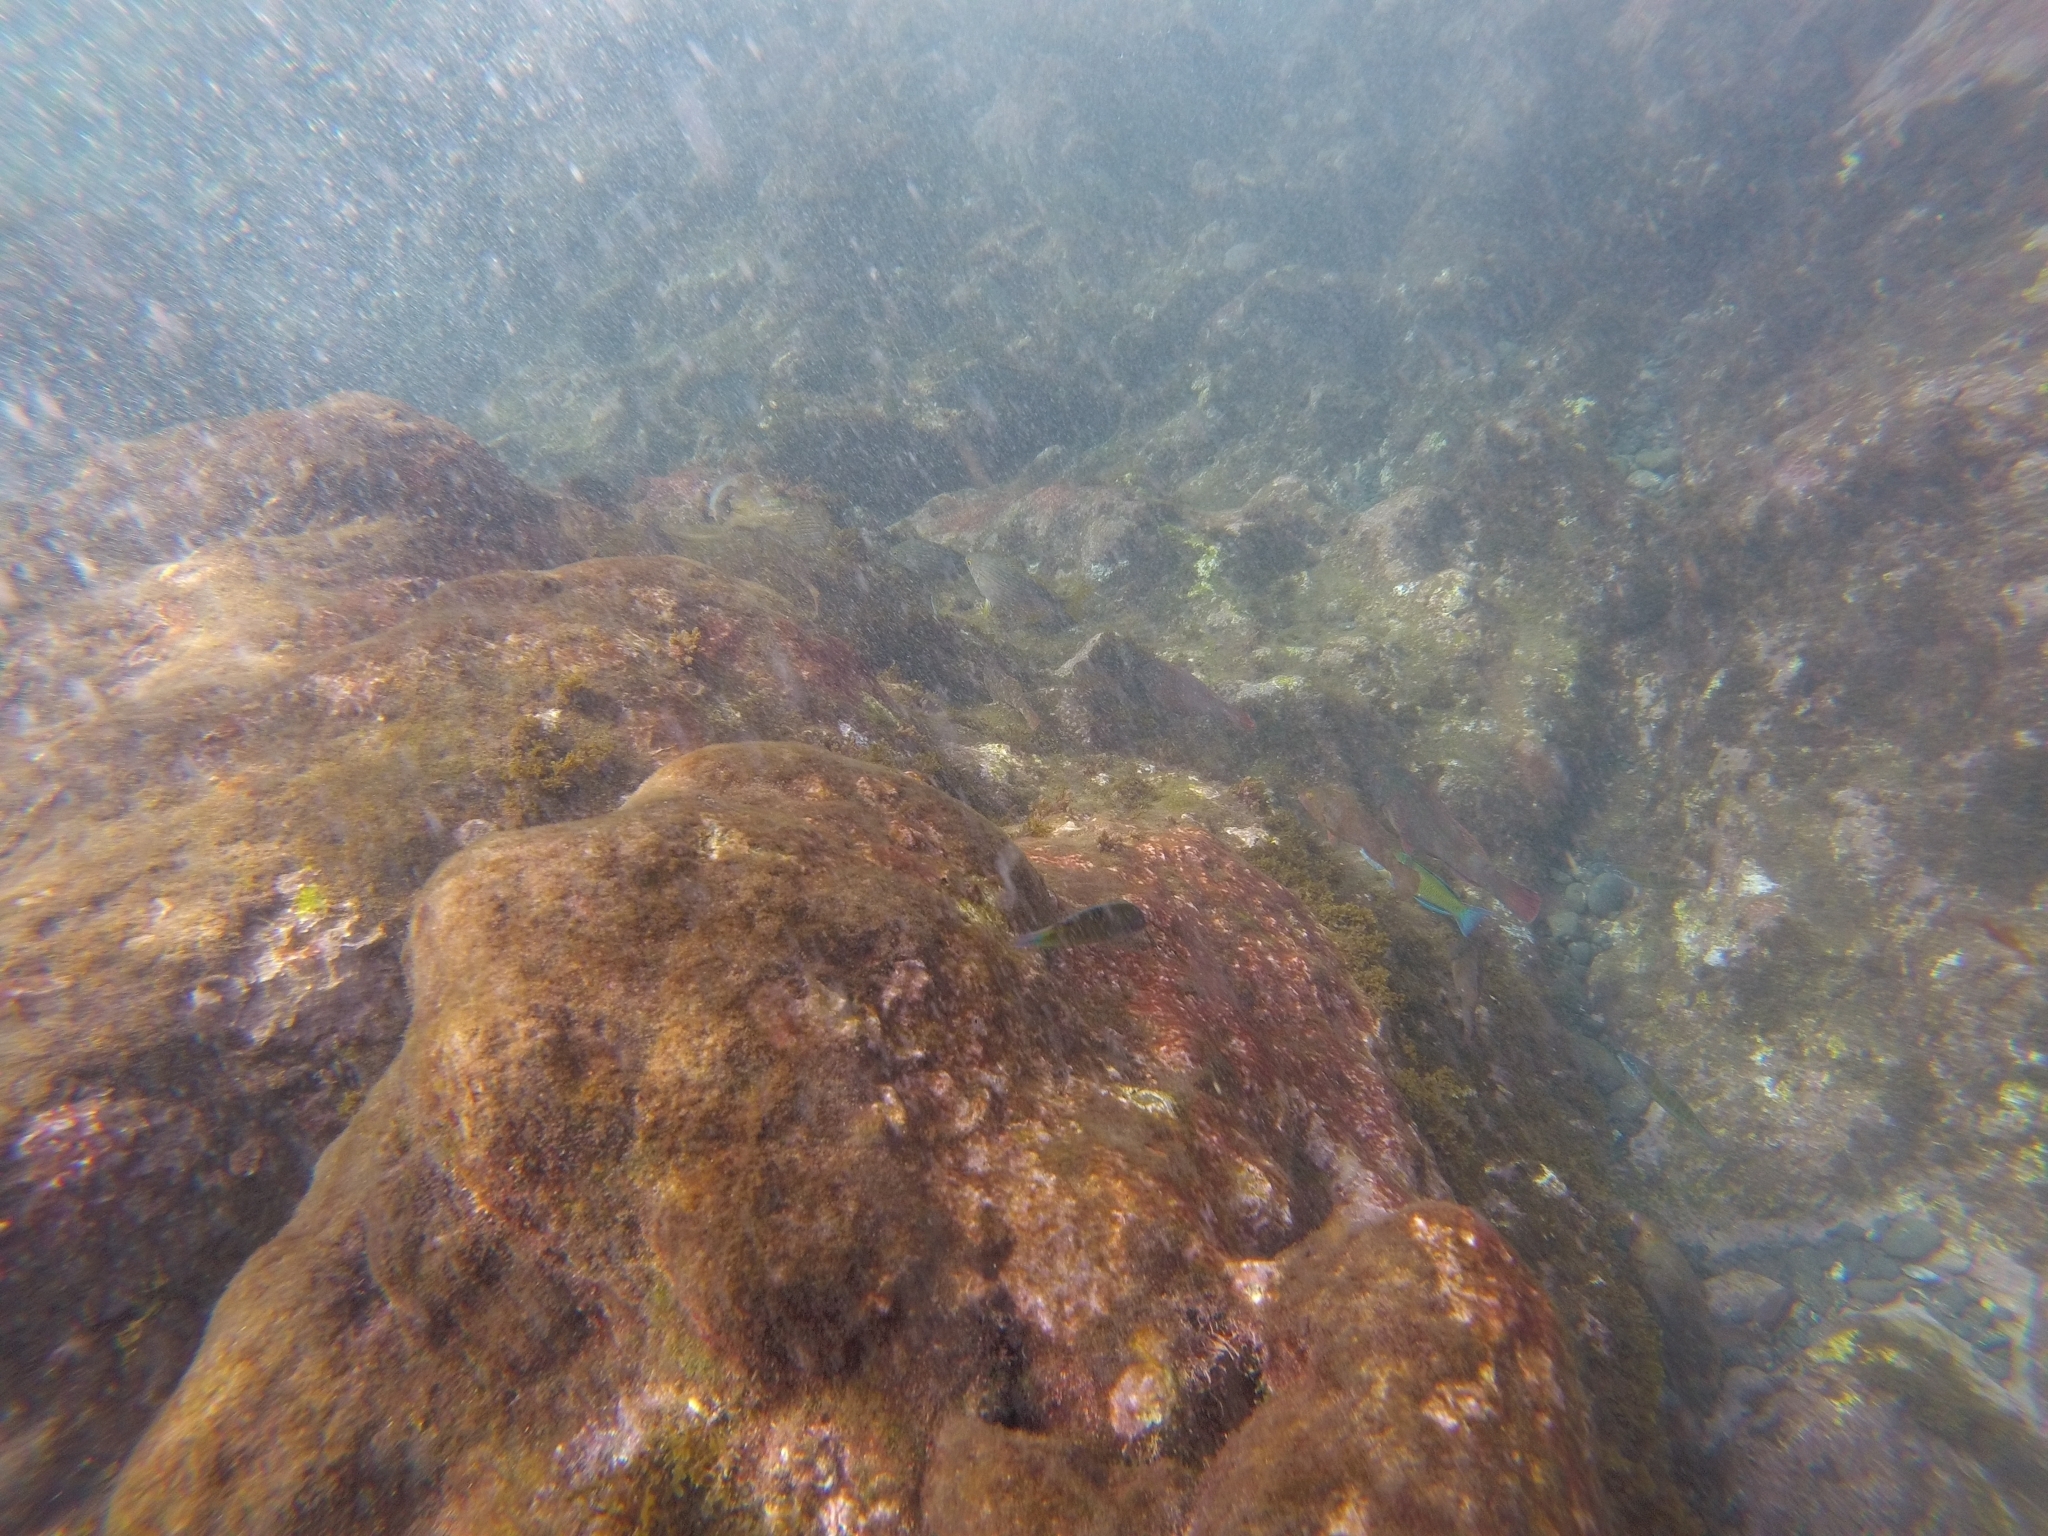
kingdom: Animalia
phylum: Chordata
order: Perciformes
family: Scaridae
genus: Sparisoma
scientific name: Sparisoma cretense
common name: Parrotfish
